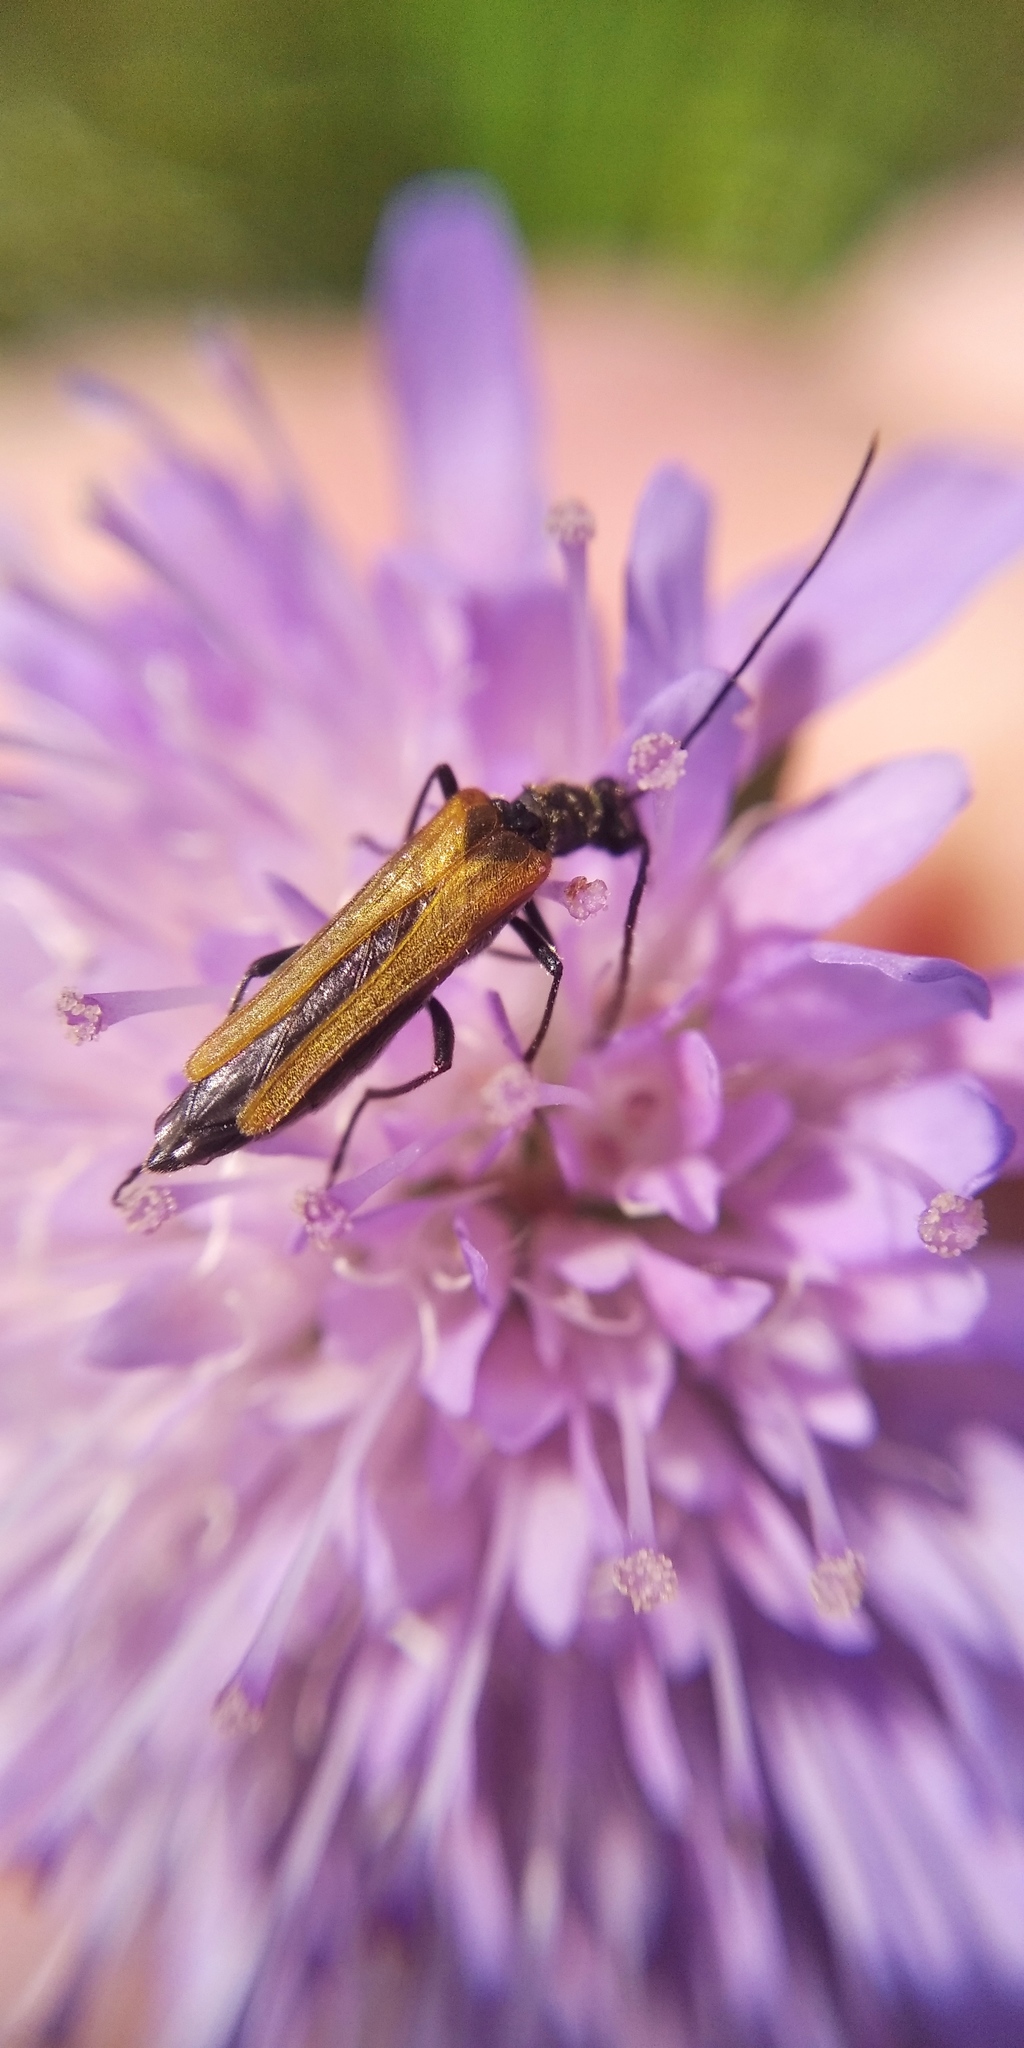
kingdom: Animalia
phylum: Arthropoda
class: Insecta
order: Coleoptera
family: Oedemeridae
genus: Oedemera
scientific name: Oedemera femorata
